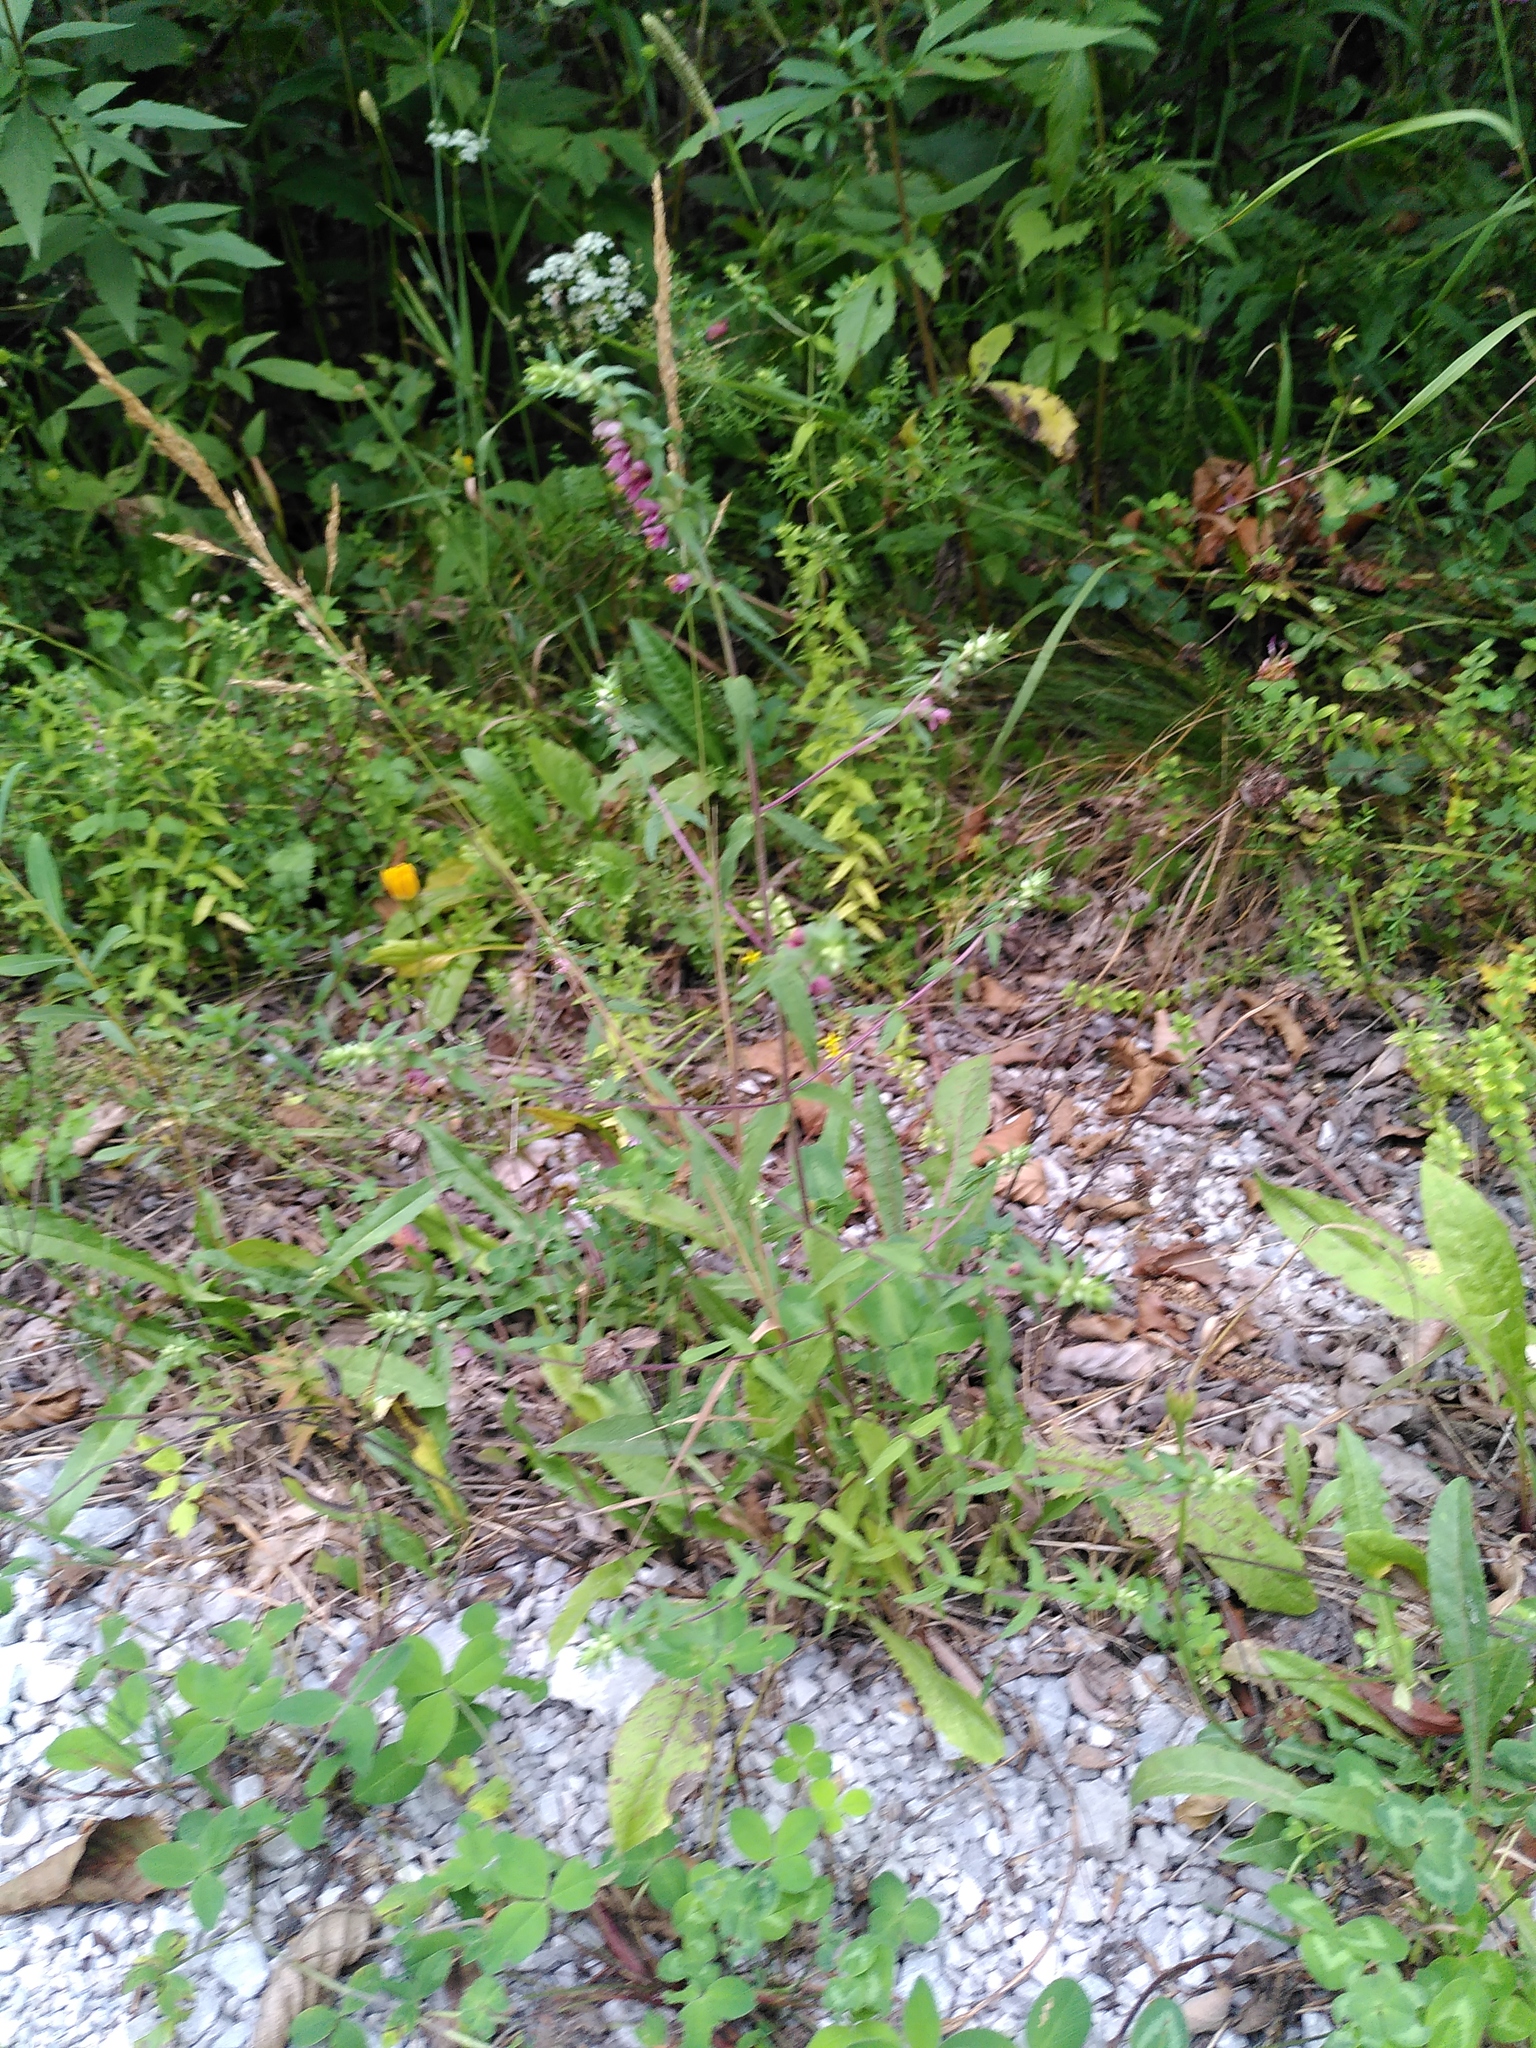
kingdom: Plantae
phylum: Tracheophyta
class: Magnoliopsida
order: Lamiales
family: Orobanchaceae
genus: Odontites
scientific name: Odontites vernus
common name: Red bartsia
